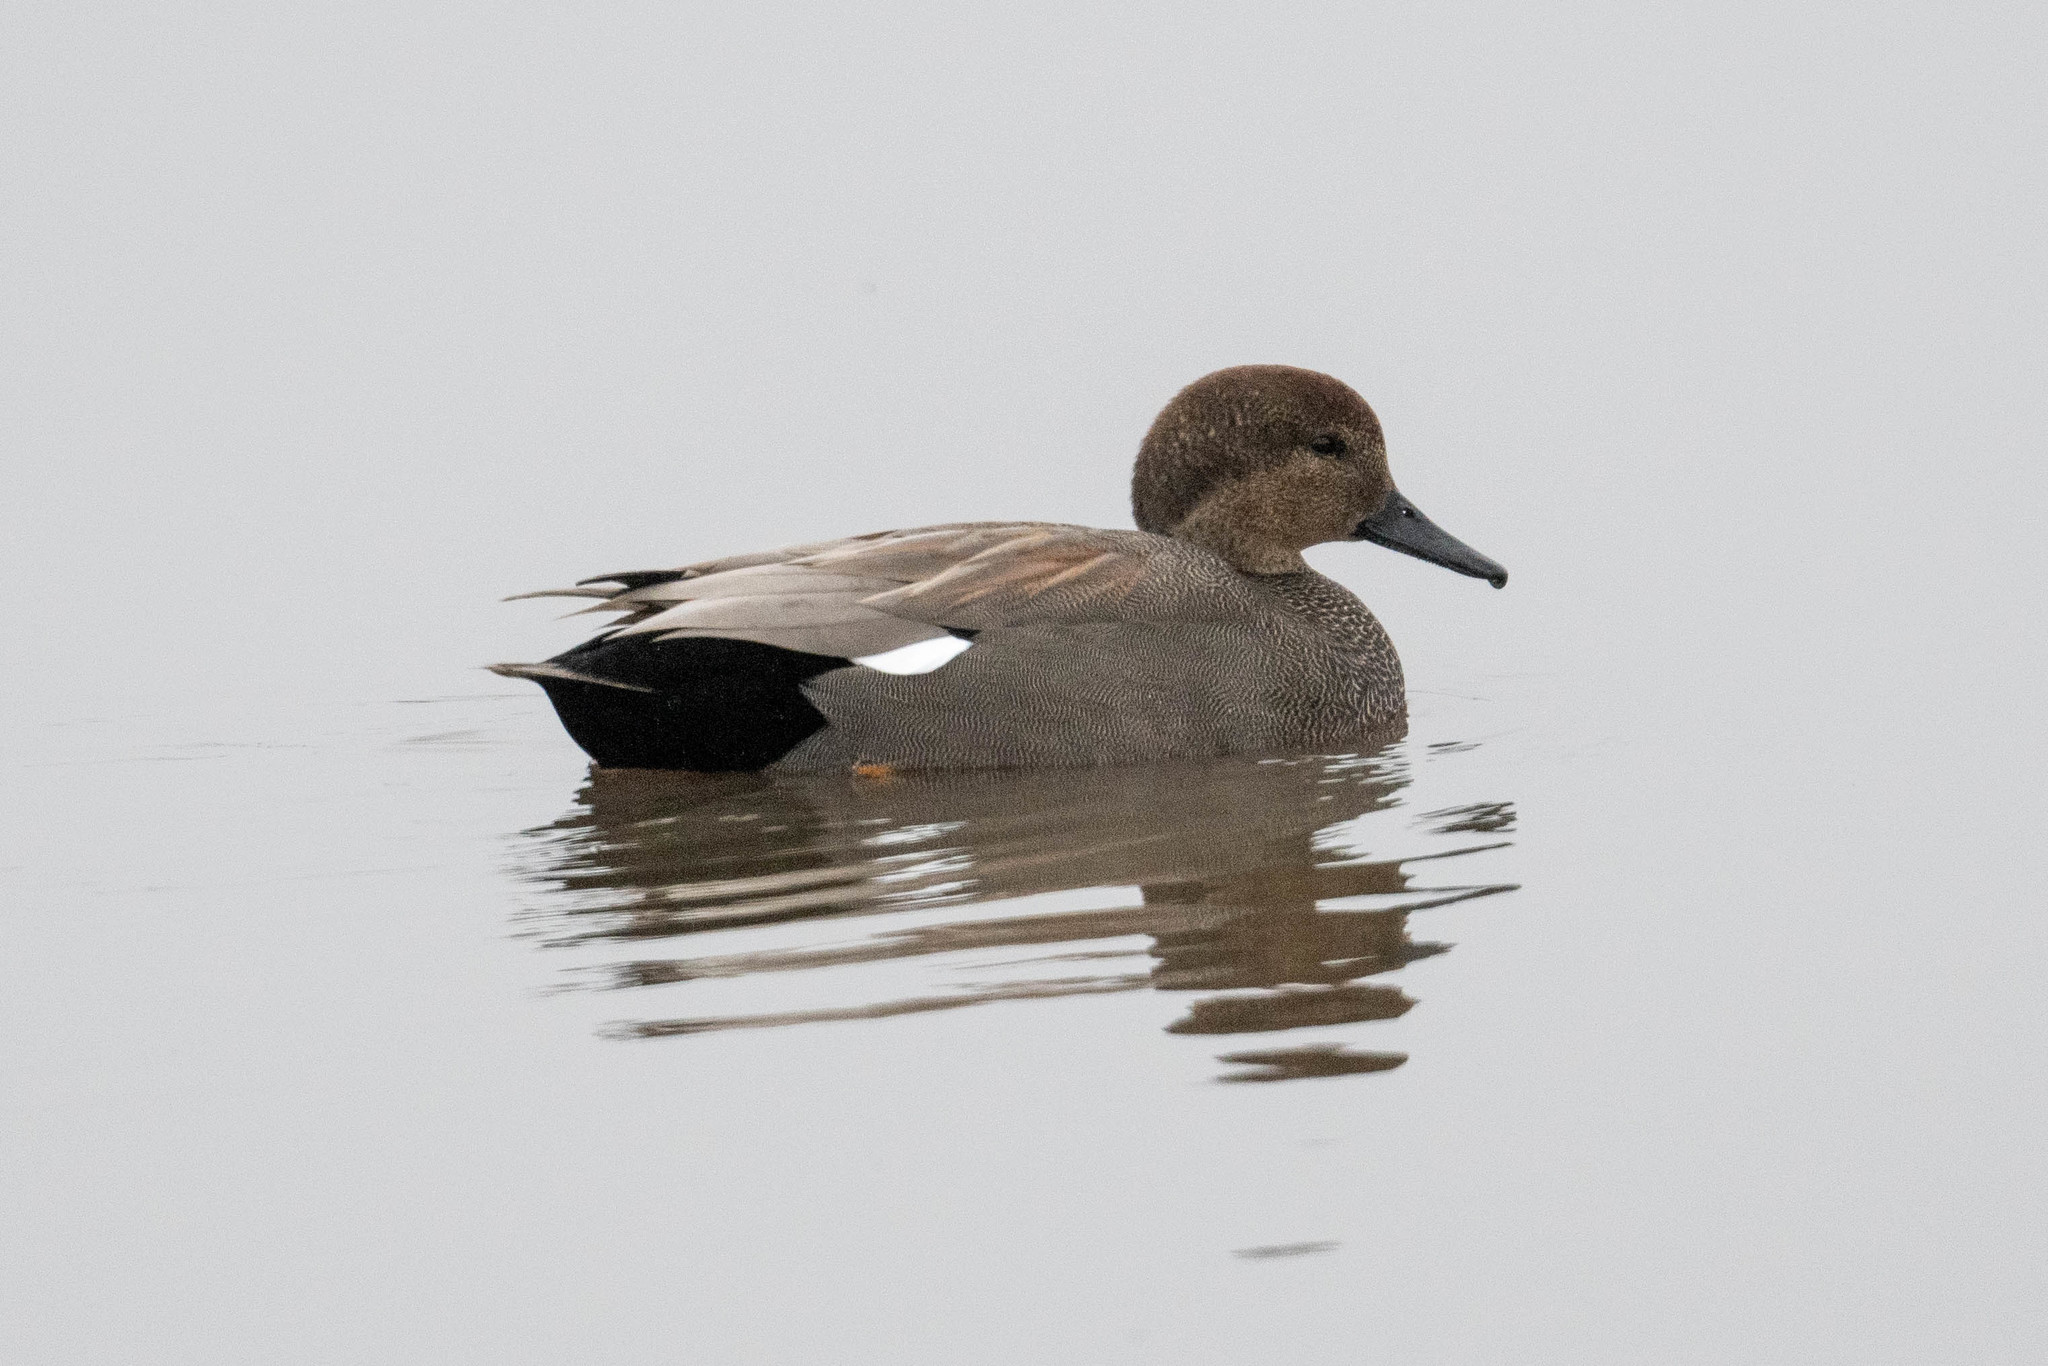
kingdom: Animalia
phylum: Chordata
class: Aves
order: Anseriformes
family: Anatidae
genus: Mareca
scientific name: Mareca strepera
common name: Gadwall
